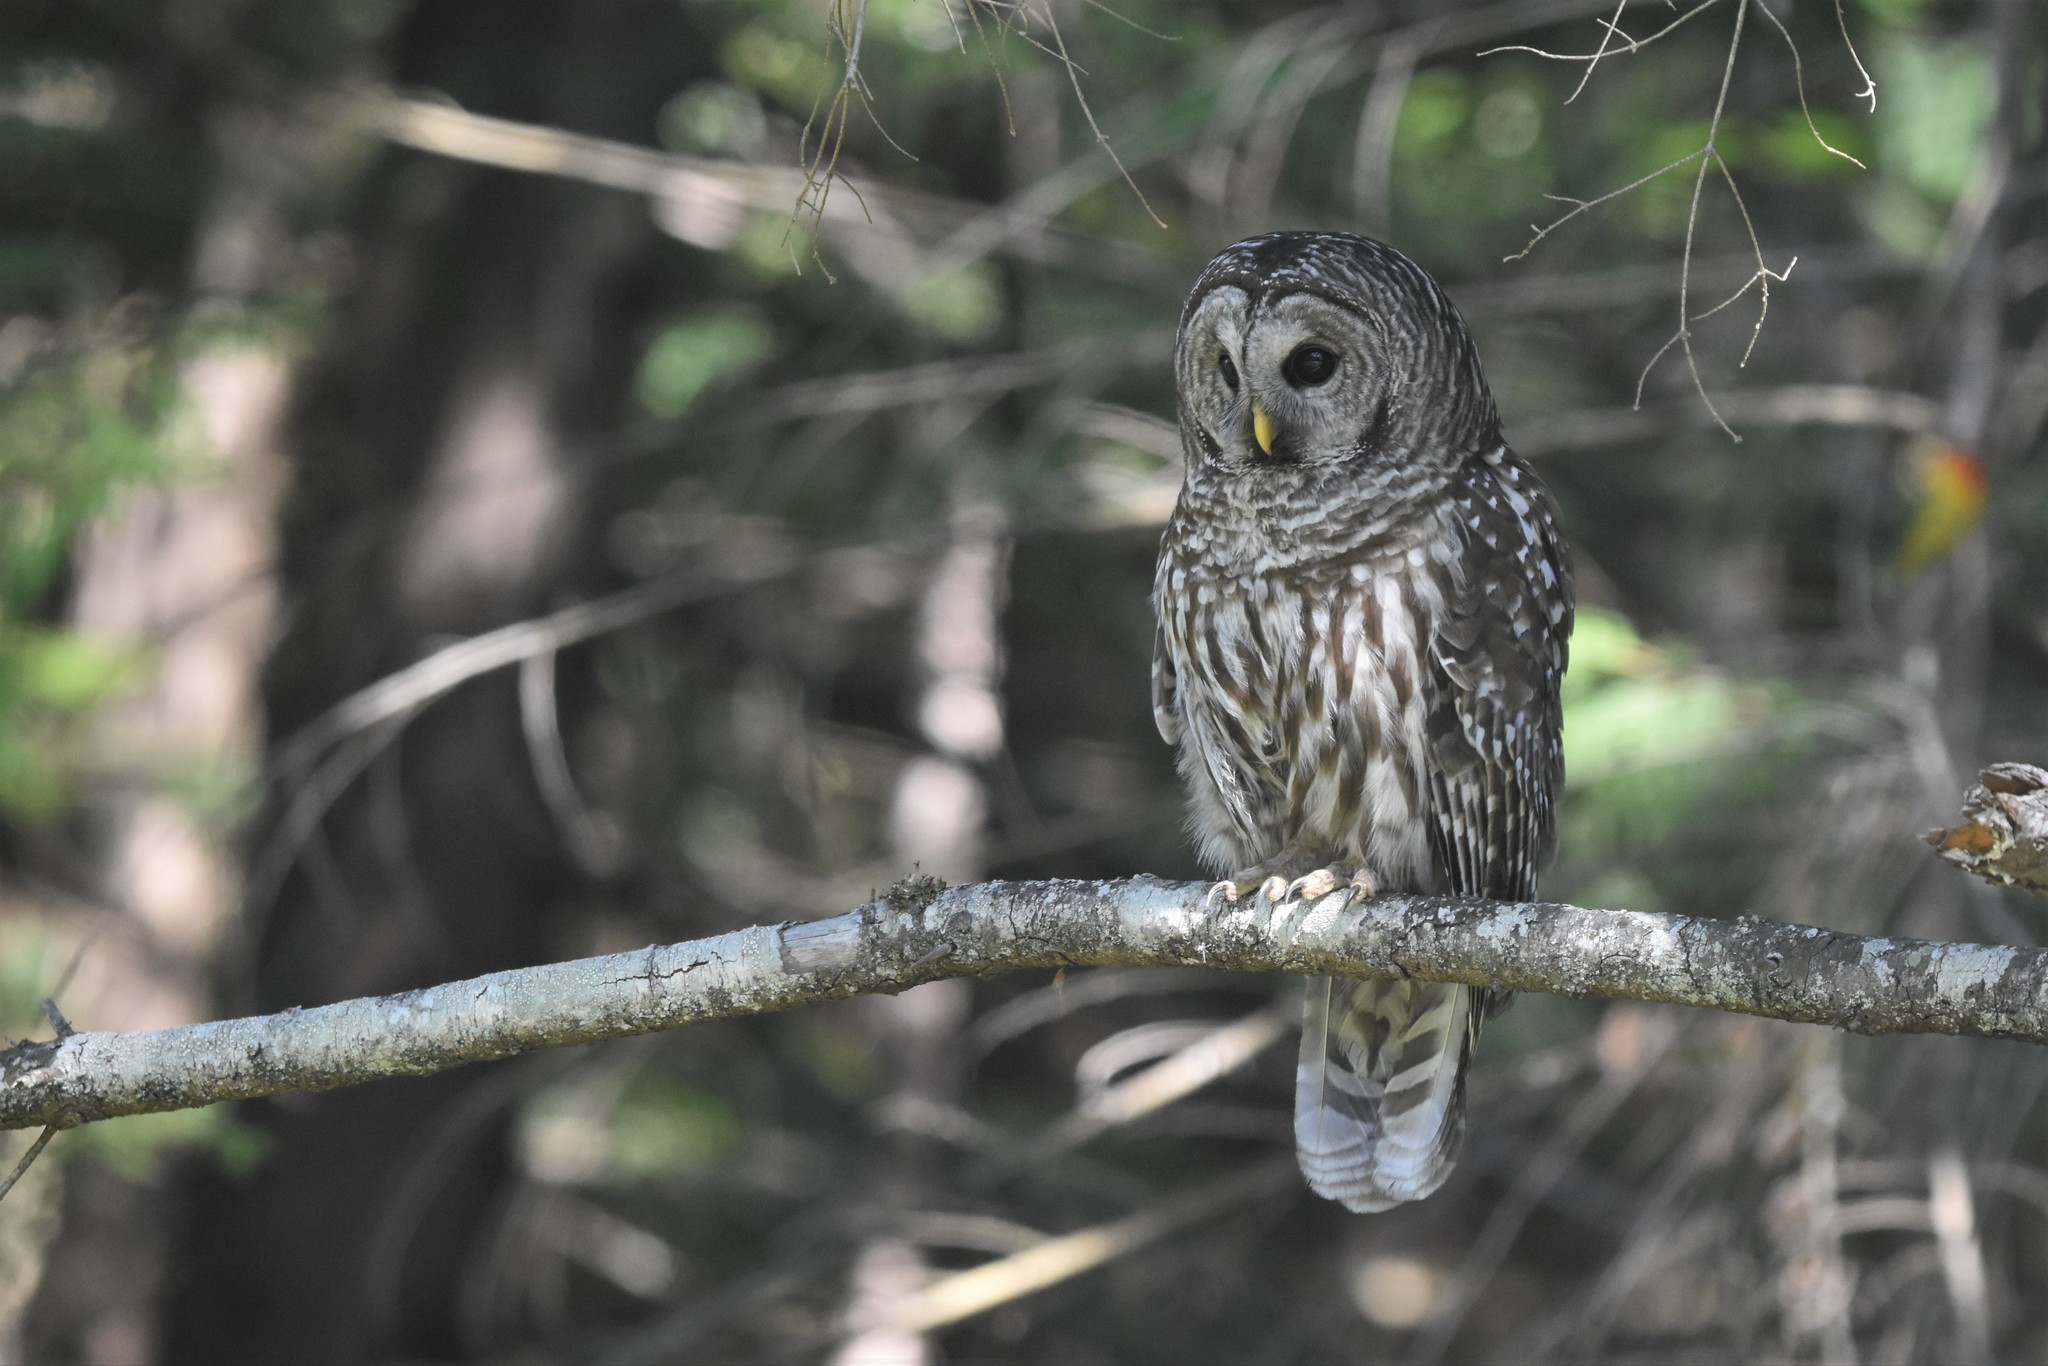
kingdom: Animalia
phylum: Chordata
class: Aves
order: Strigiformes
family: Strigidae
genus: Strix
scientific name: Strix varia
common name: Barred owl
